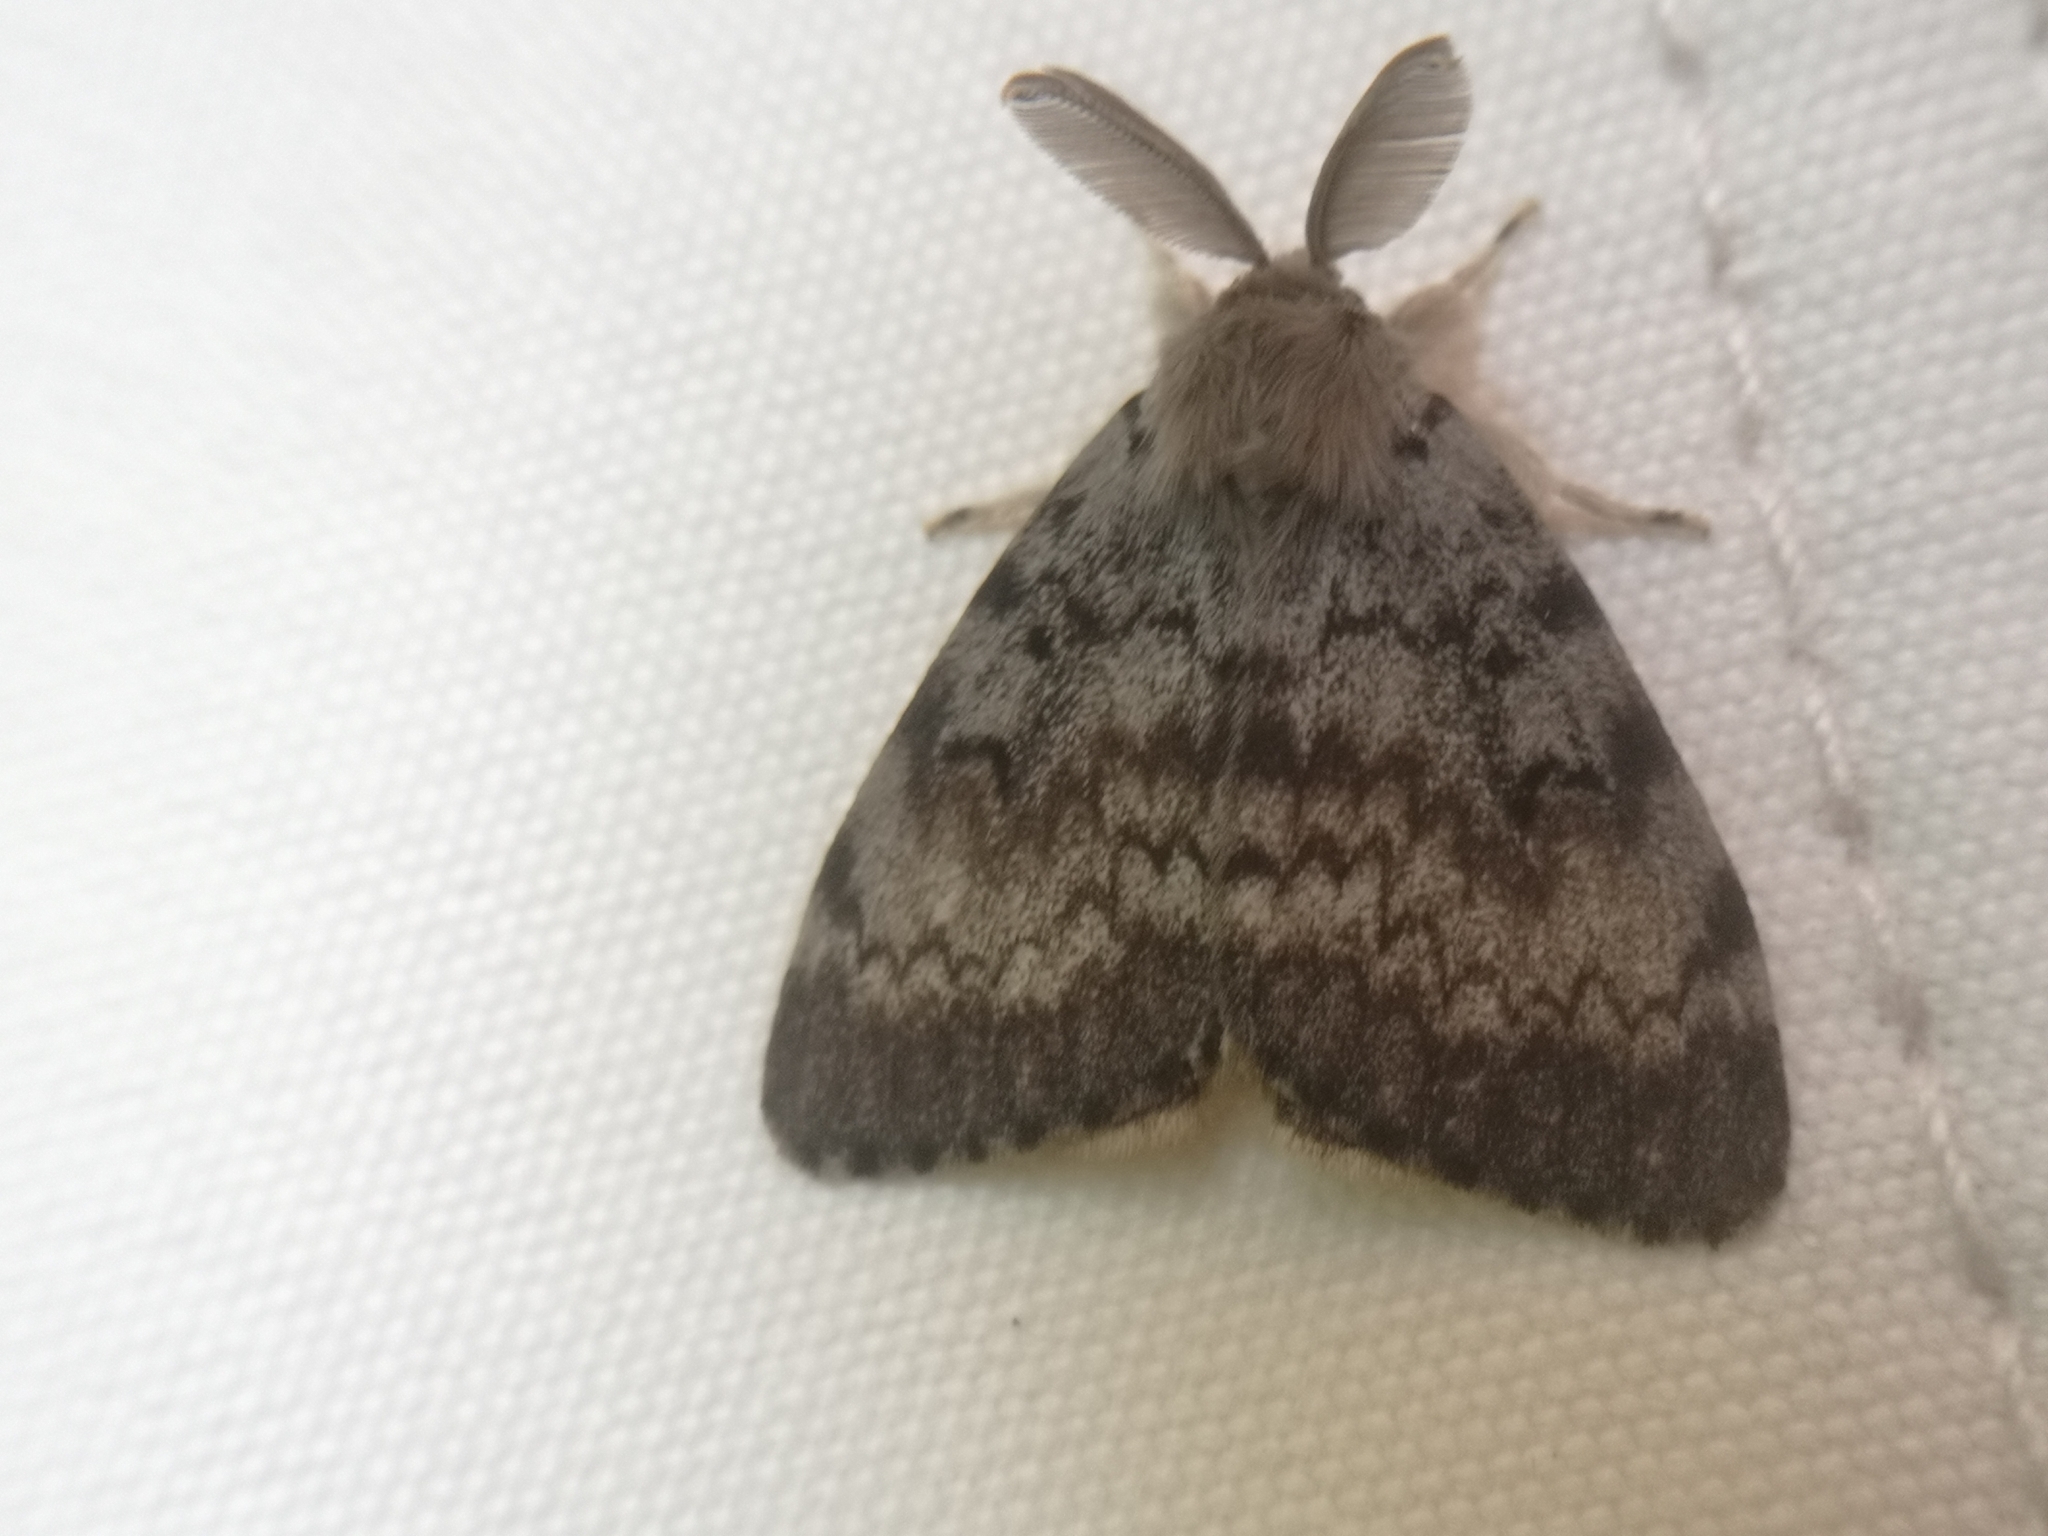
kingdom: Animalia
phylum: Arthropoda
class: Insecta
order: Lepidoptera
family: Erebidae
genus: Lymantria
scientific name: Lymantria dispar
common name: Gypsy moth
